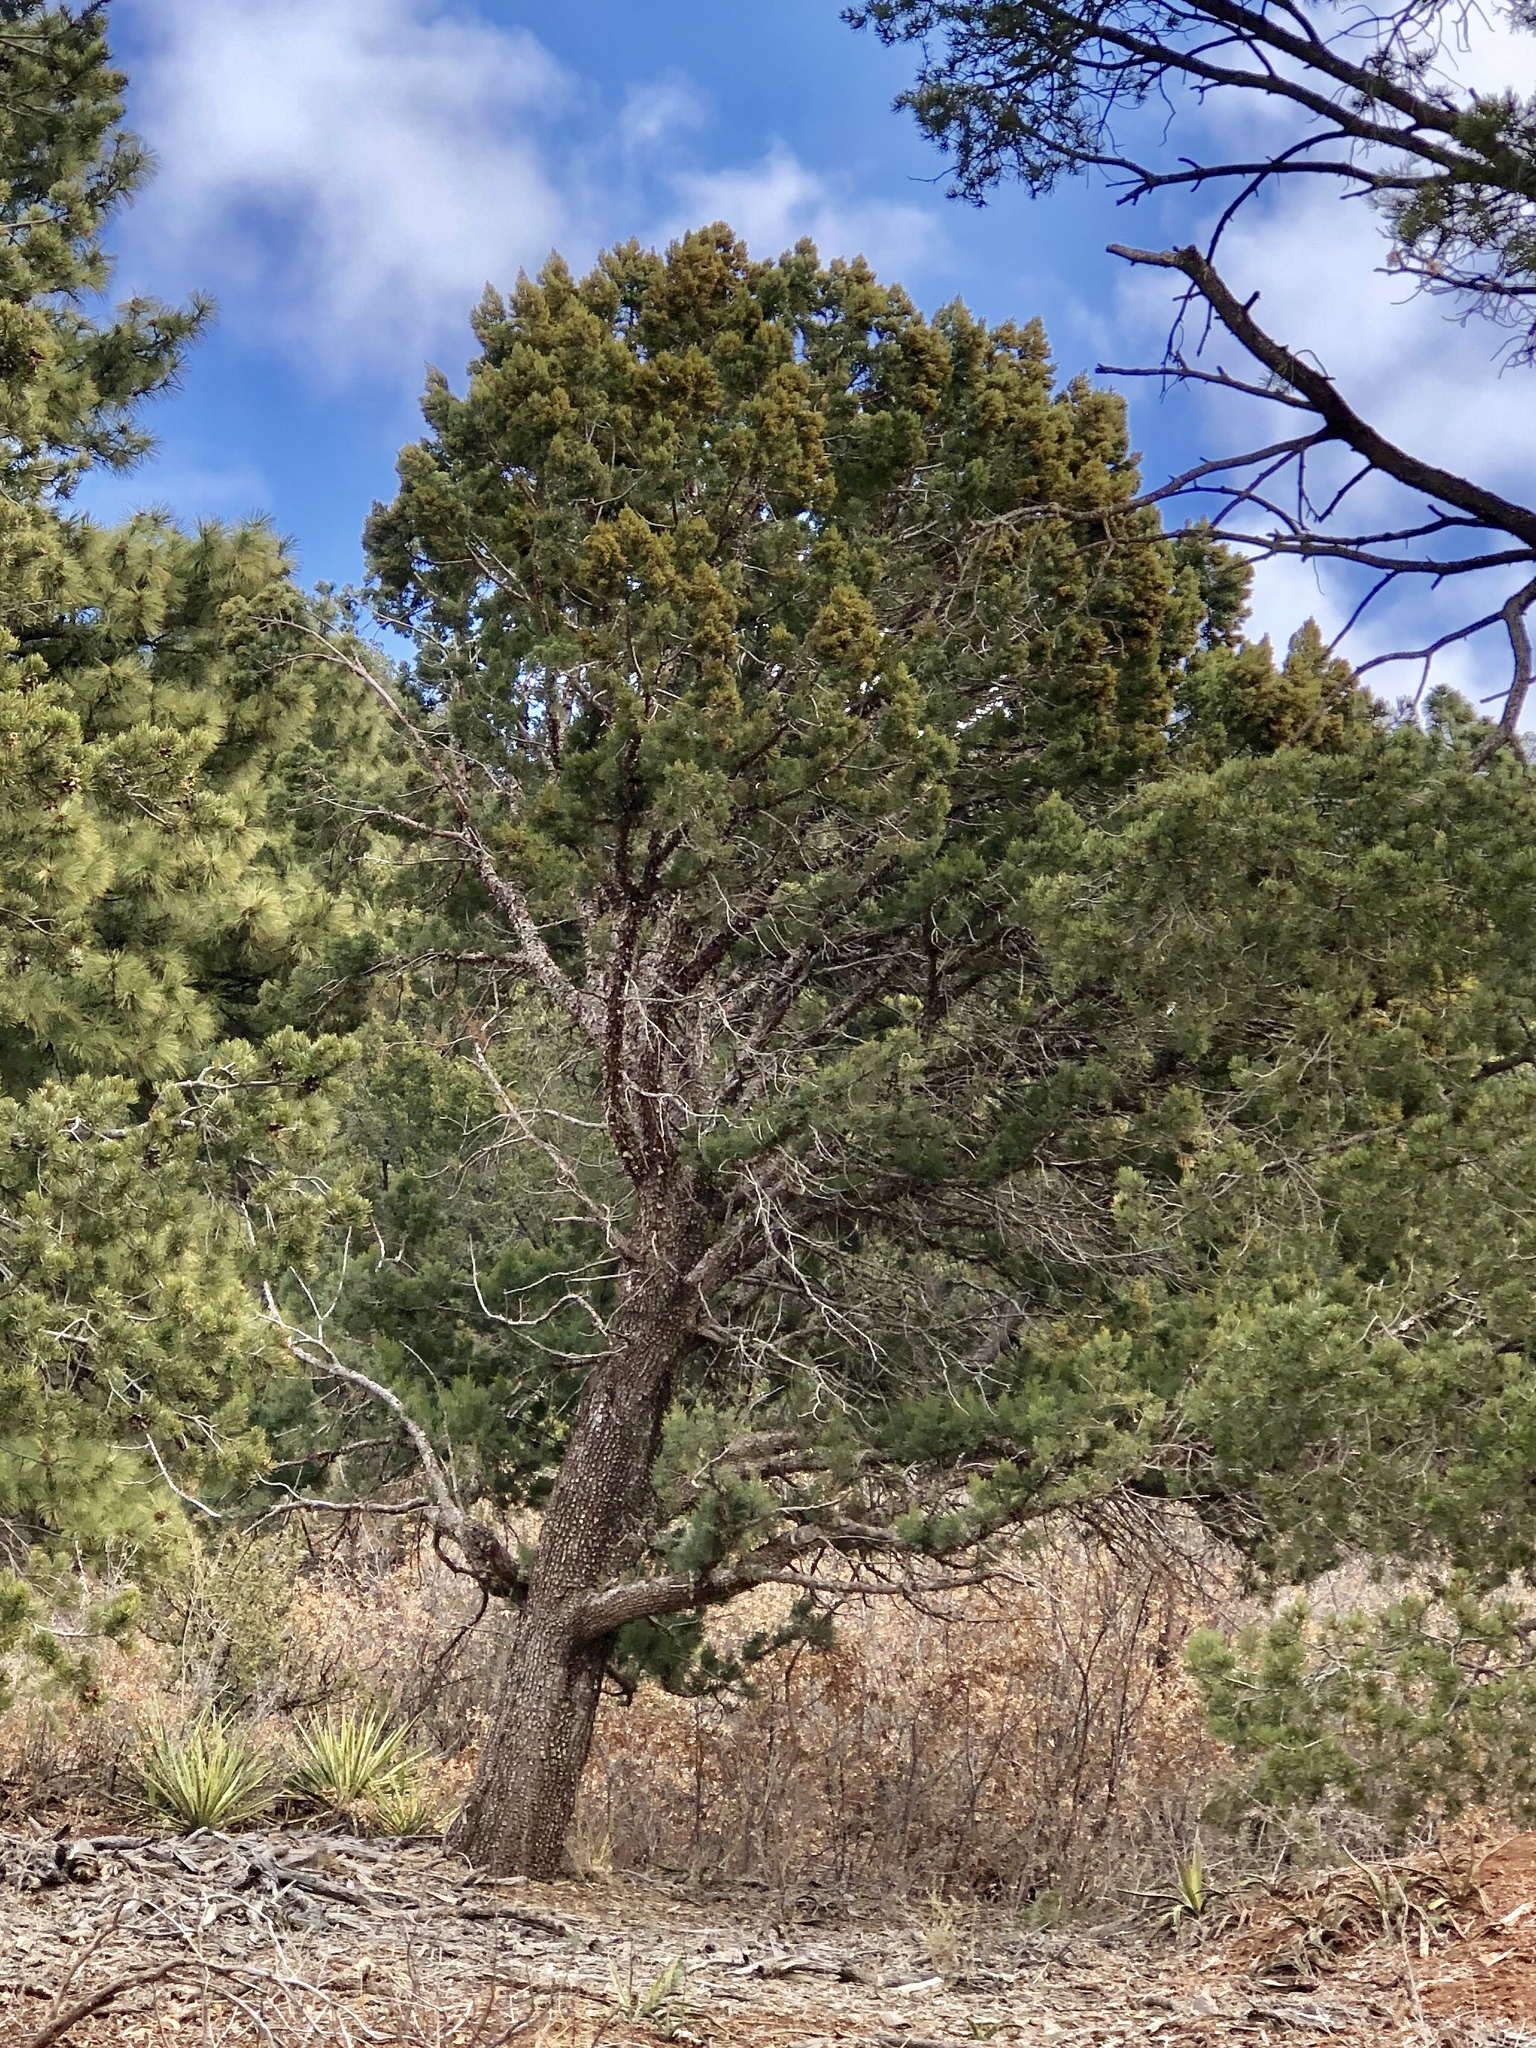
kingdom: Plantae
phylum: Tracheophyta
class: Pinopsida
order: Pinales
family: Cupressaceae
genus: Juniperus
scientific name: Juniperus deppeana
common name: Alligator juniper
